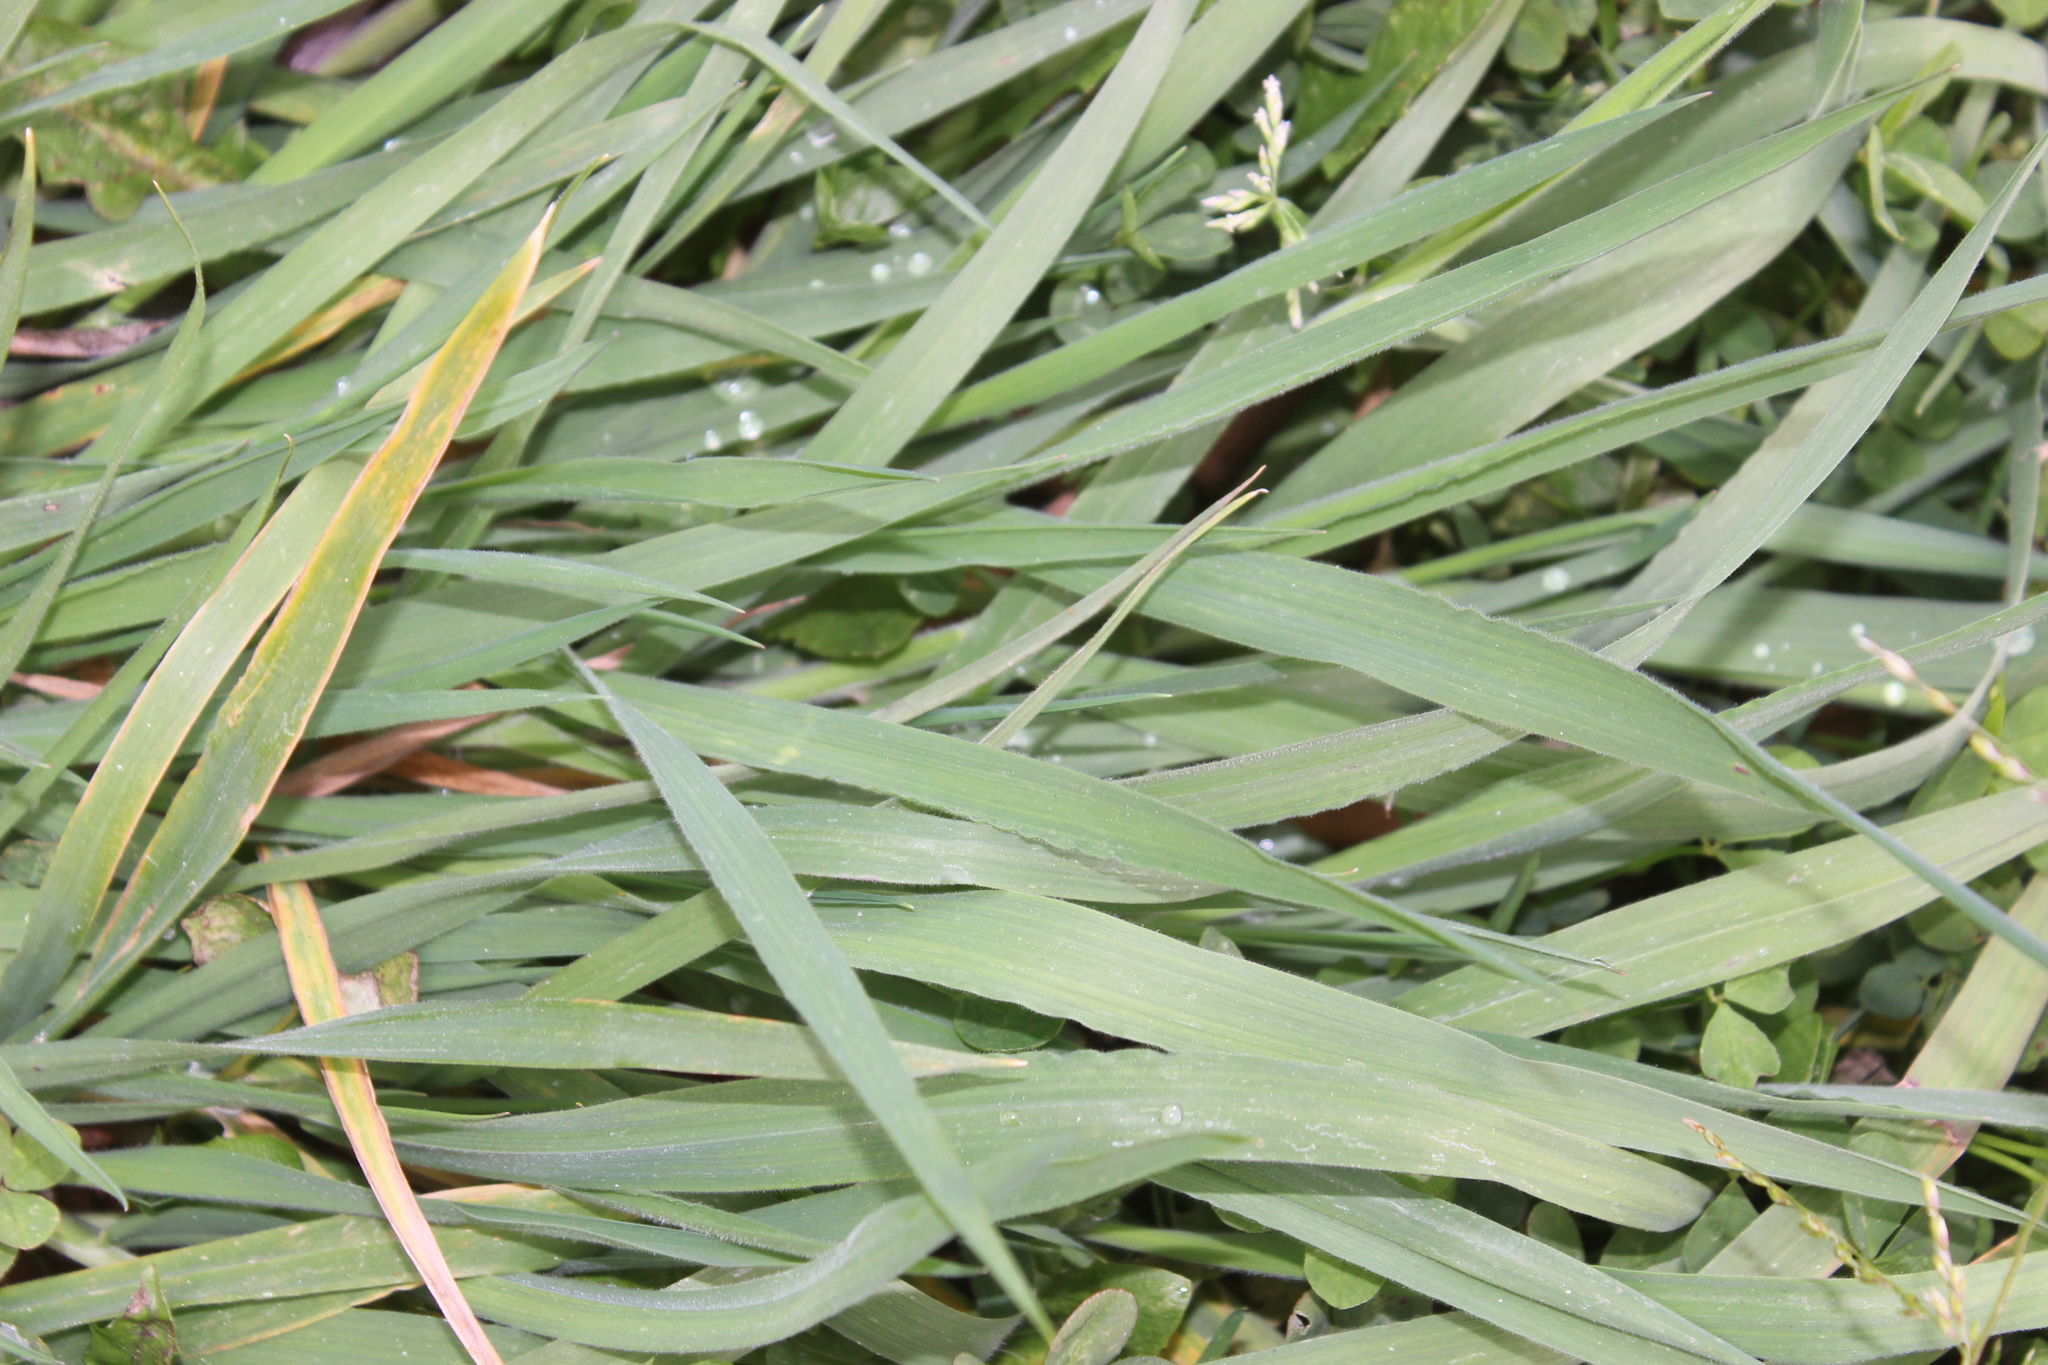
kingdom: Plantae
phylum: Tracheophyta
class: Liliopsida
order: Poales
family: Poaceae
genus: Holcus
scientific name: Holcus lanatus
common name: Yorkshire-fog
